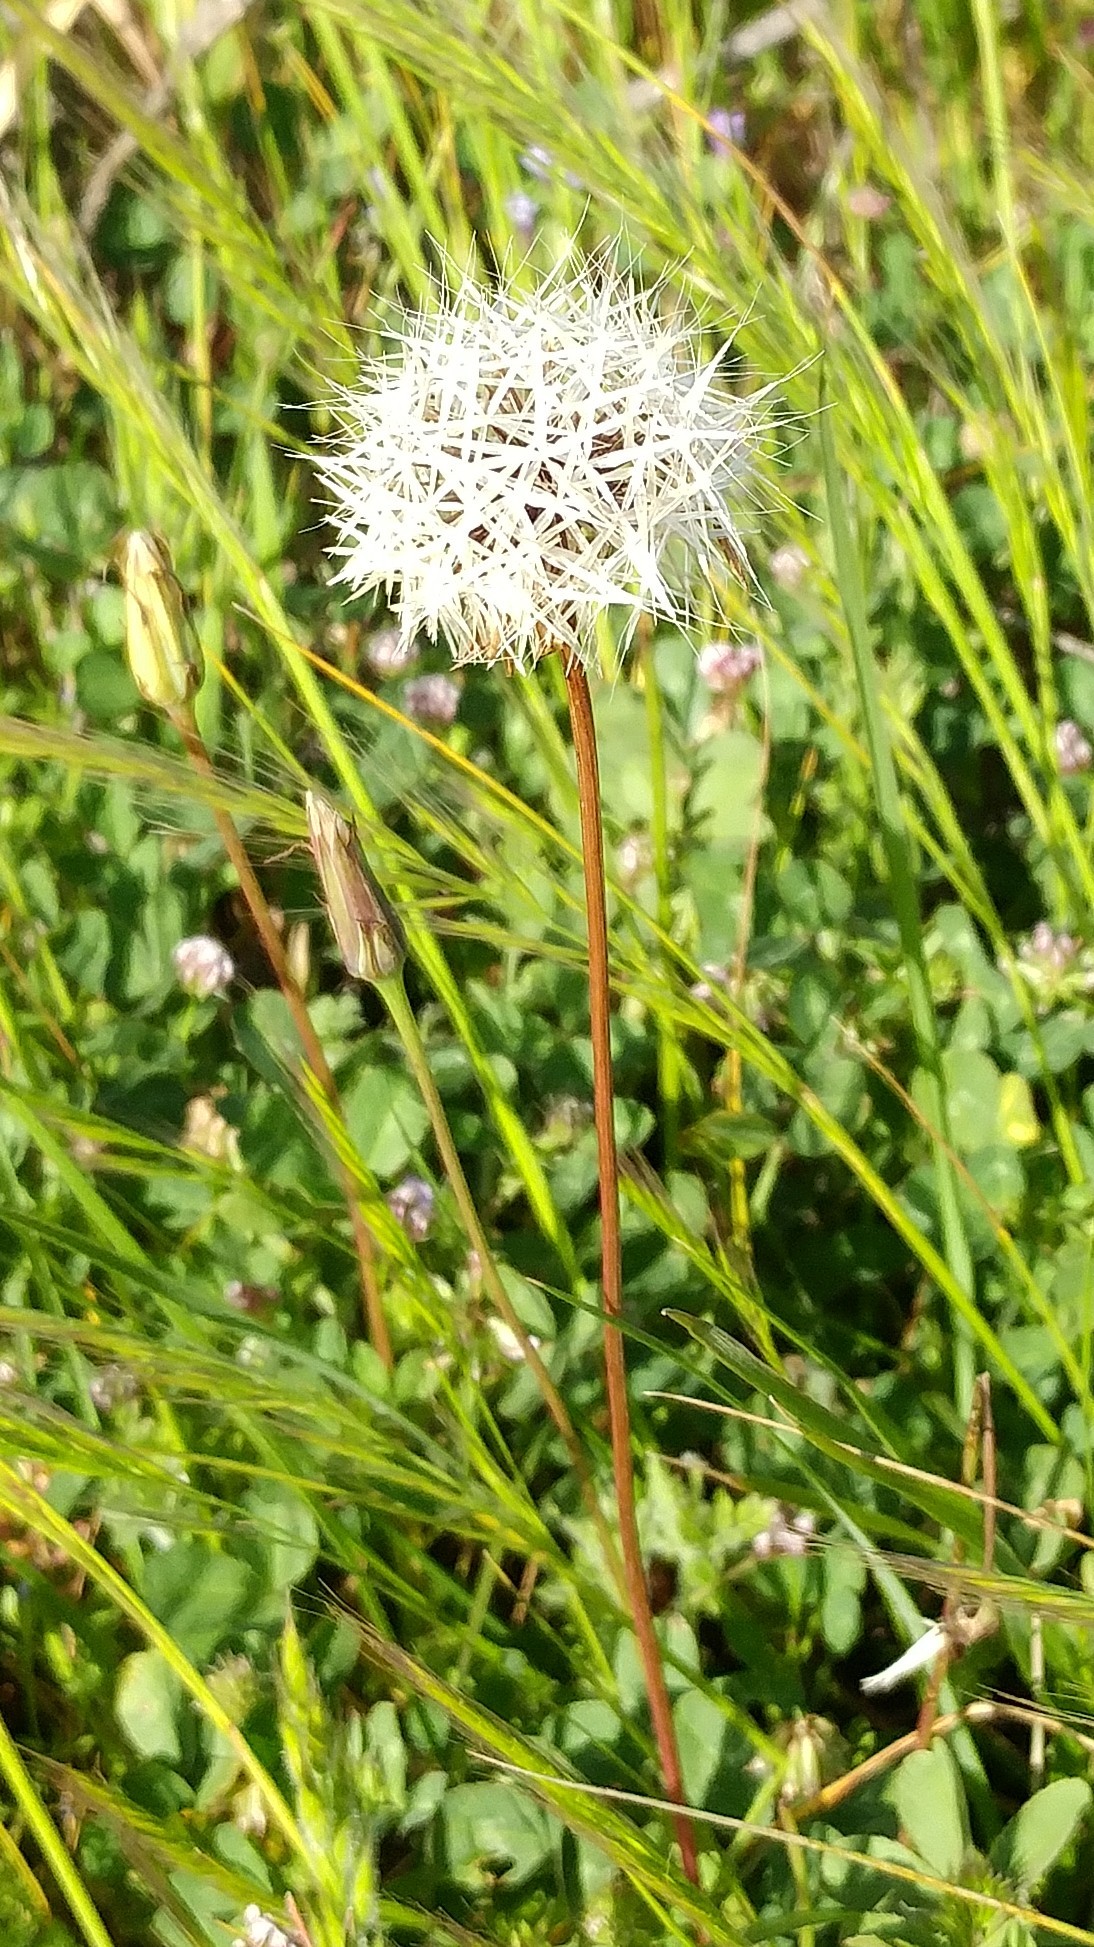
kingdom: Plantae
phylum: Tracheophyta
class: Magnoliopsida
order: Asterales
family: Asteraceae
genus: Microseris
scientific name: Microseris lindleyi
